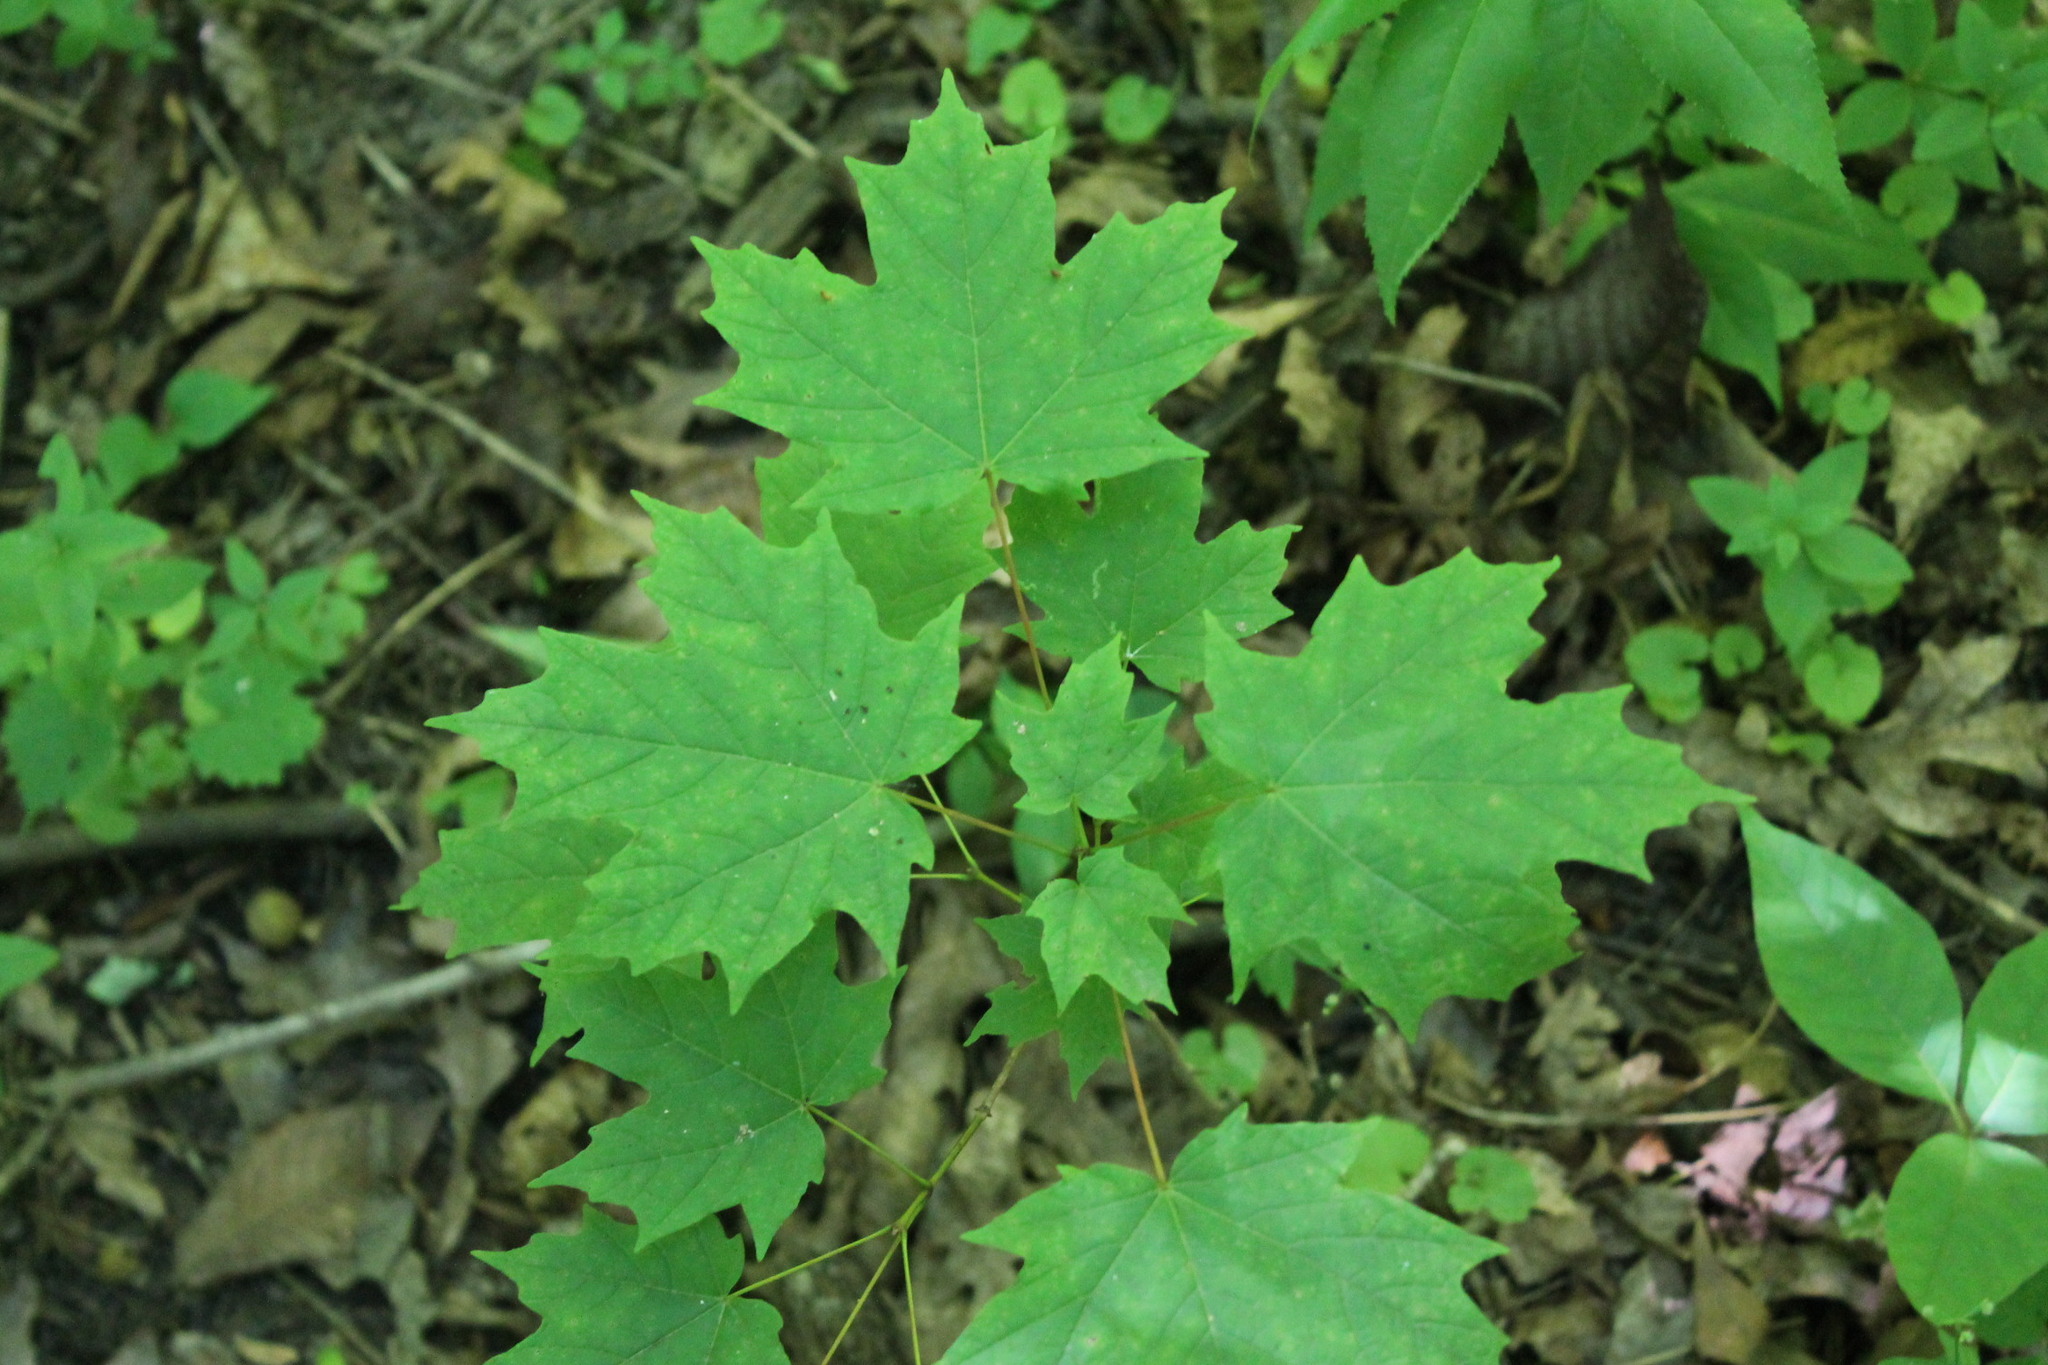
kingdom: Plantae
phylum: Tracheophyta
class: Magnoliopsida
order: Sapindales
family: Sapindaceae
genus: Acer
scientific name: Acer saccharum
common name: Sugar maple
